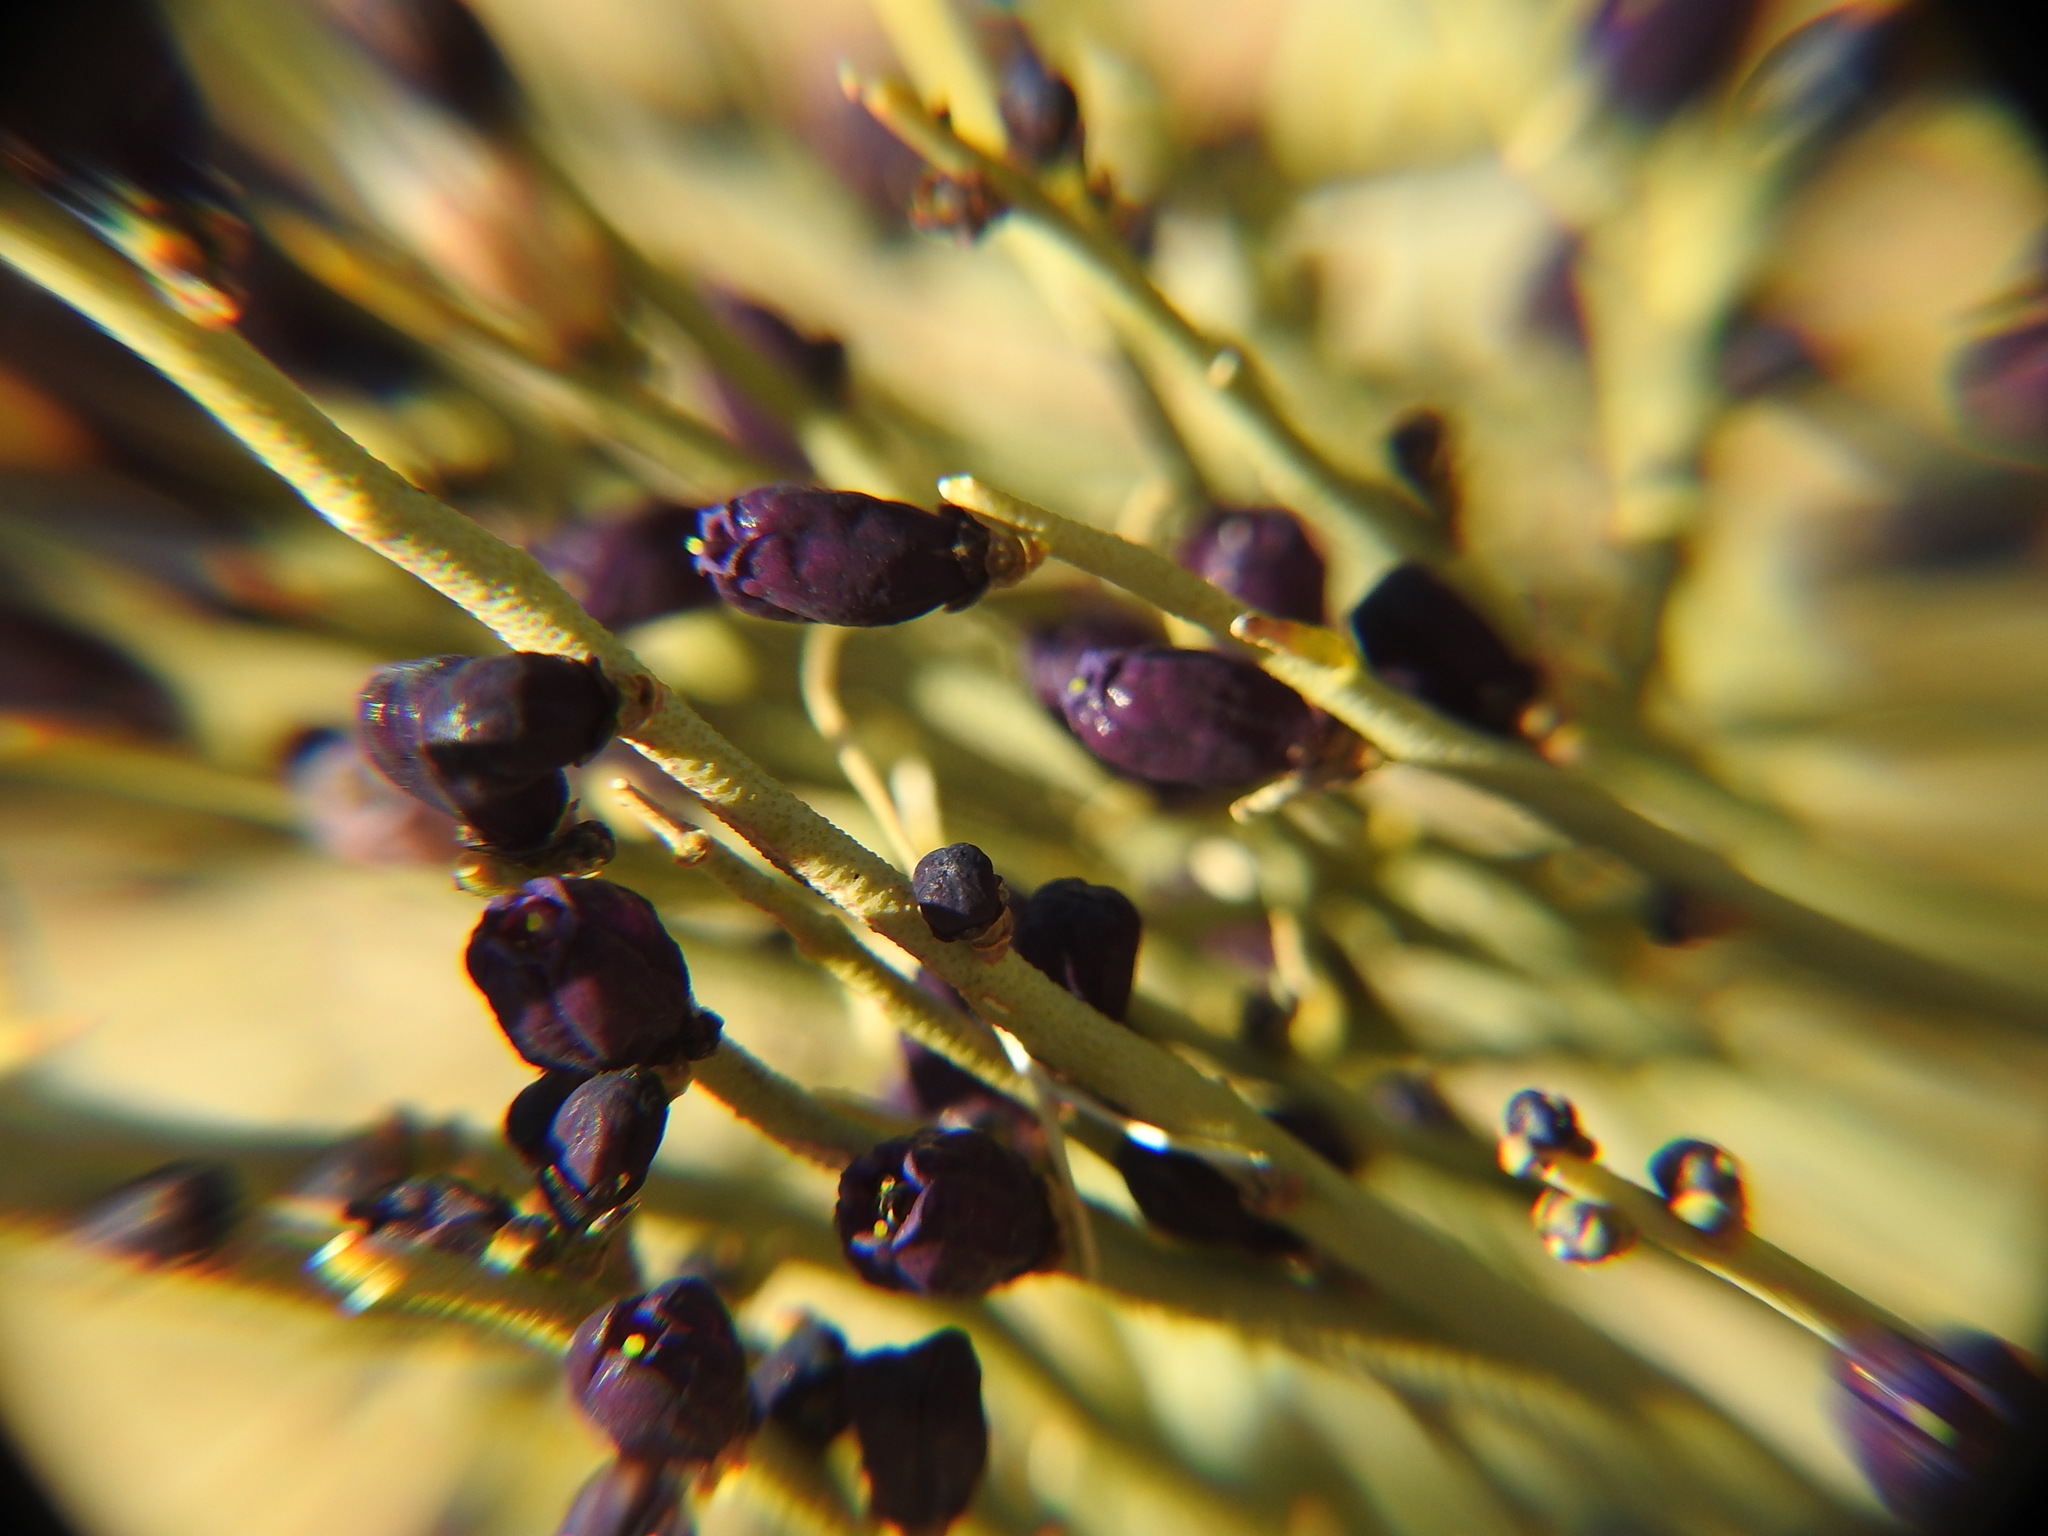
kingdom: Plantae
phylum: Tracheophyta
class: Magnoliopsida
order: Sapindales
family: Rutaceae
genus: Thamnosma
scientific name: Thamnosma montana
